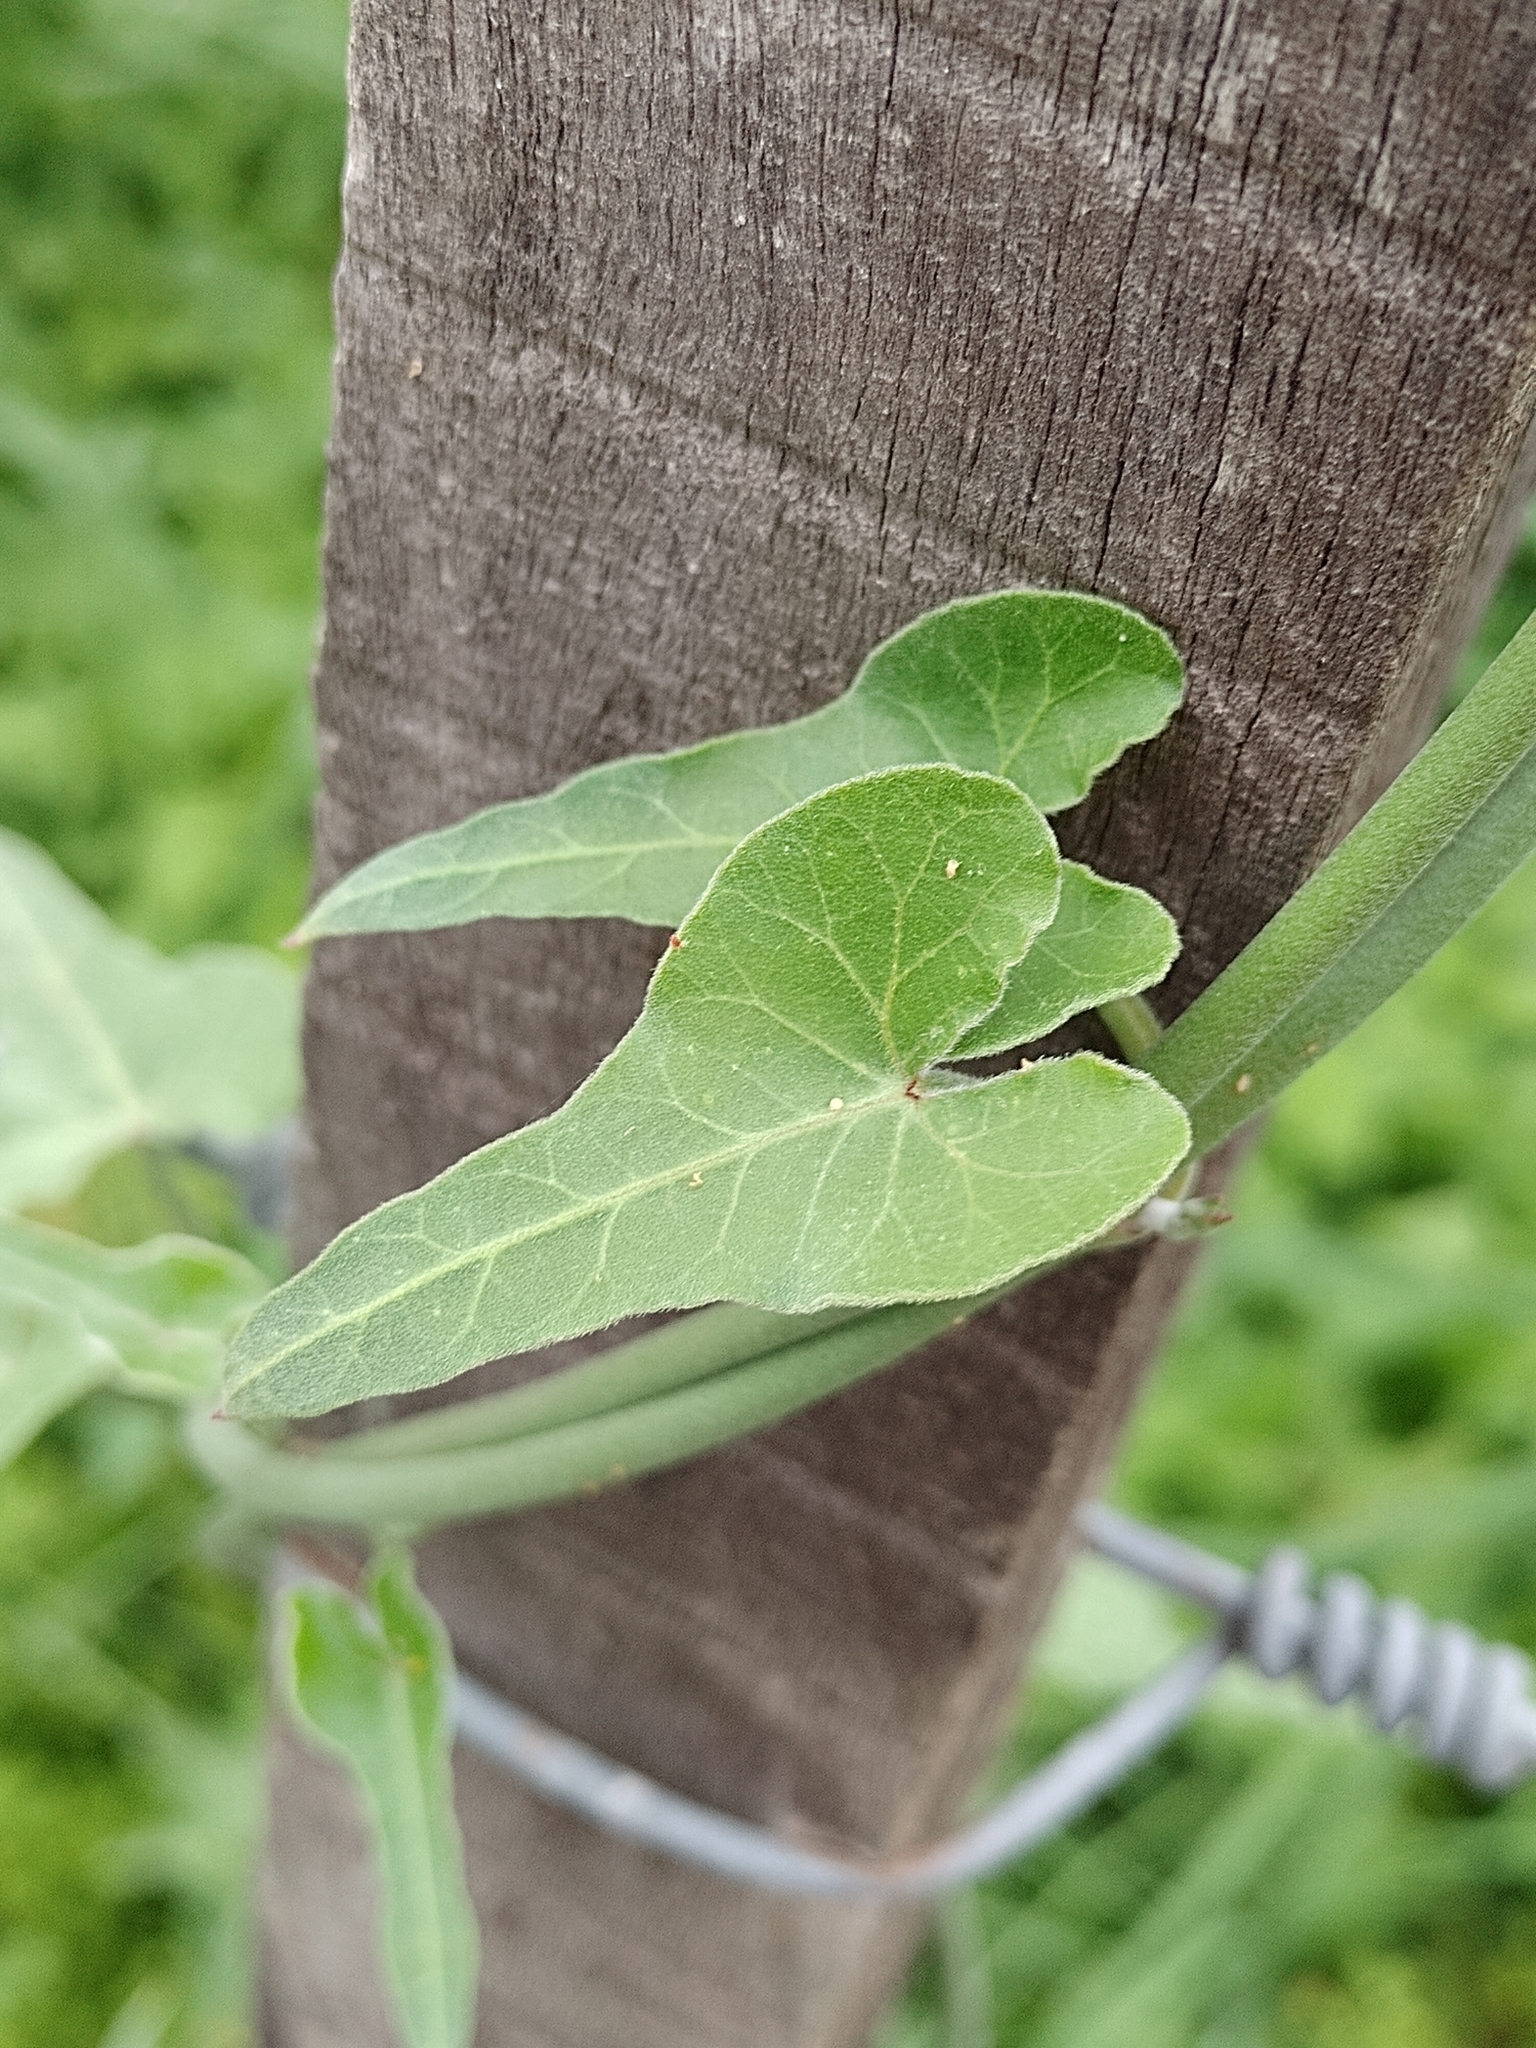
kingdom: Plantae
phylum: Tracheophyta
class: Magnoliopsida
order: Gentianales
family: Apocynaceae
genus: Araujia
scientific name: Araujia odorata
